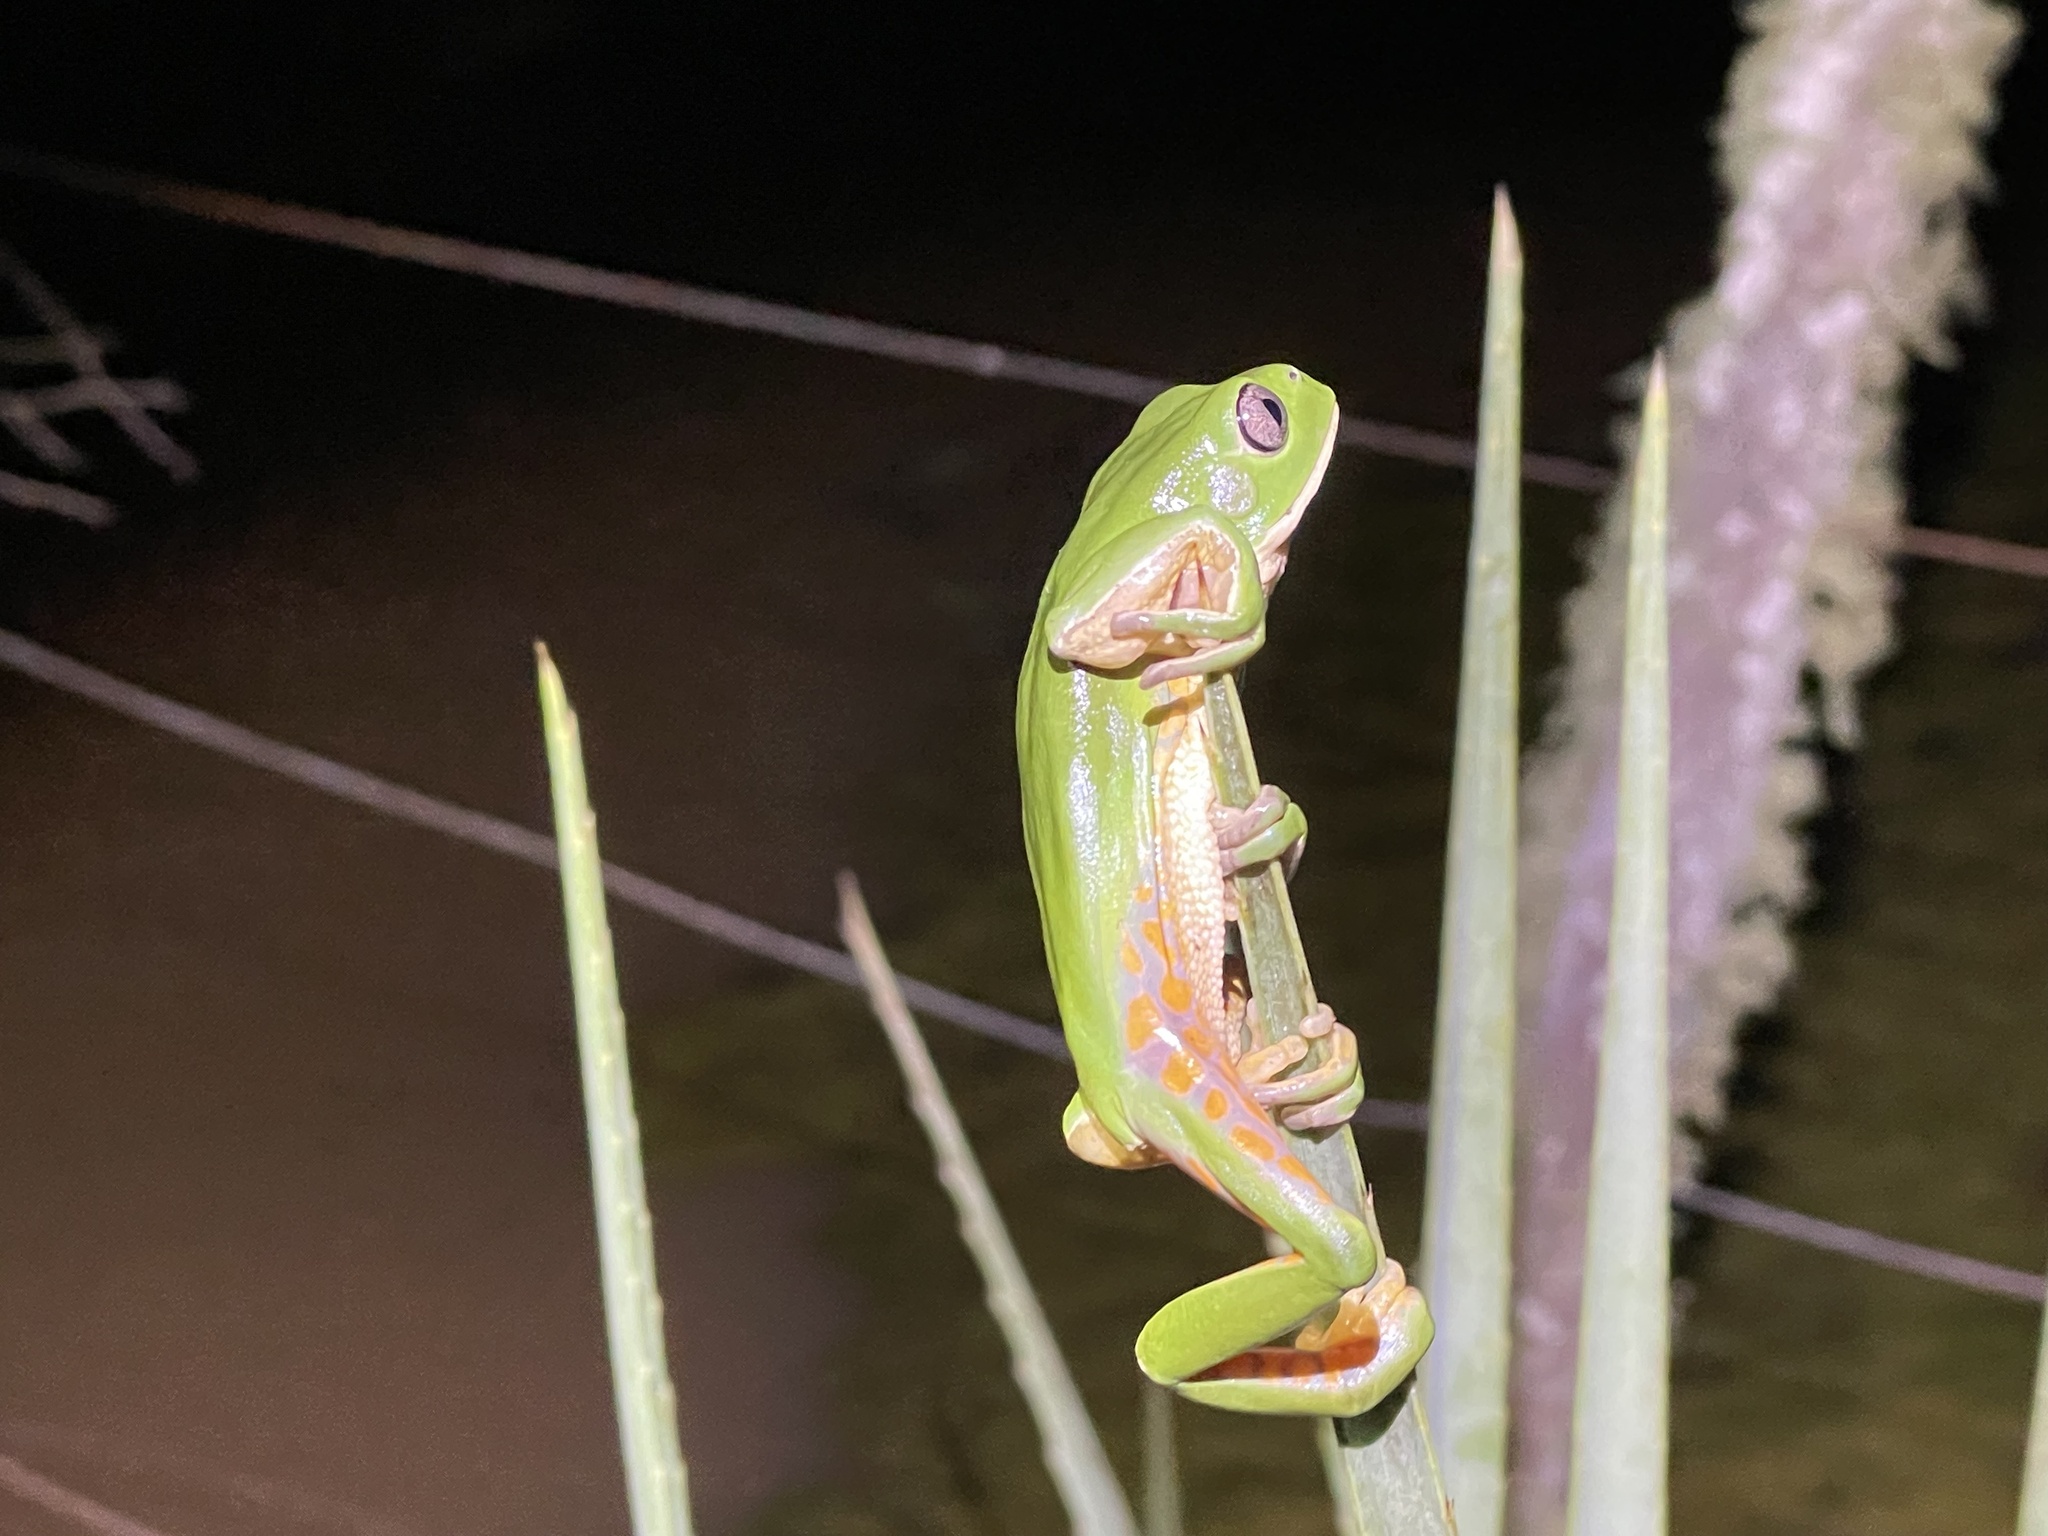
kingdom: Animalia
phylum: Chordata
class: Amphibia
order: Anura
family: Phyllomedusidae
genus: Phyllomedusa
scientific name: Phyllomedusa iheringii
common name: Southern walking leaf frog
